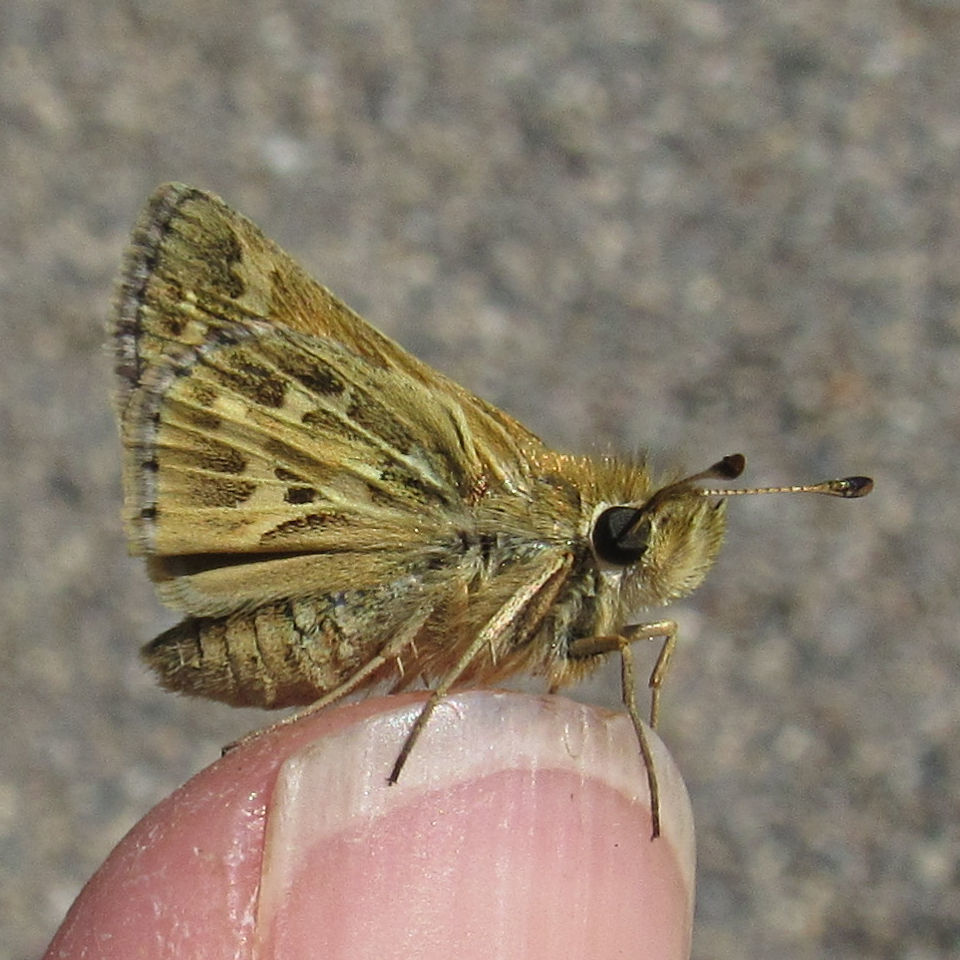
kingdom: Animalia
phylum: Arthropoda
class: Insecta
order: Lepidoptera
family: Hesperiidae
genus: Polites
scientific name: Polites sabuleti
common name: Sandhill skipper
